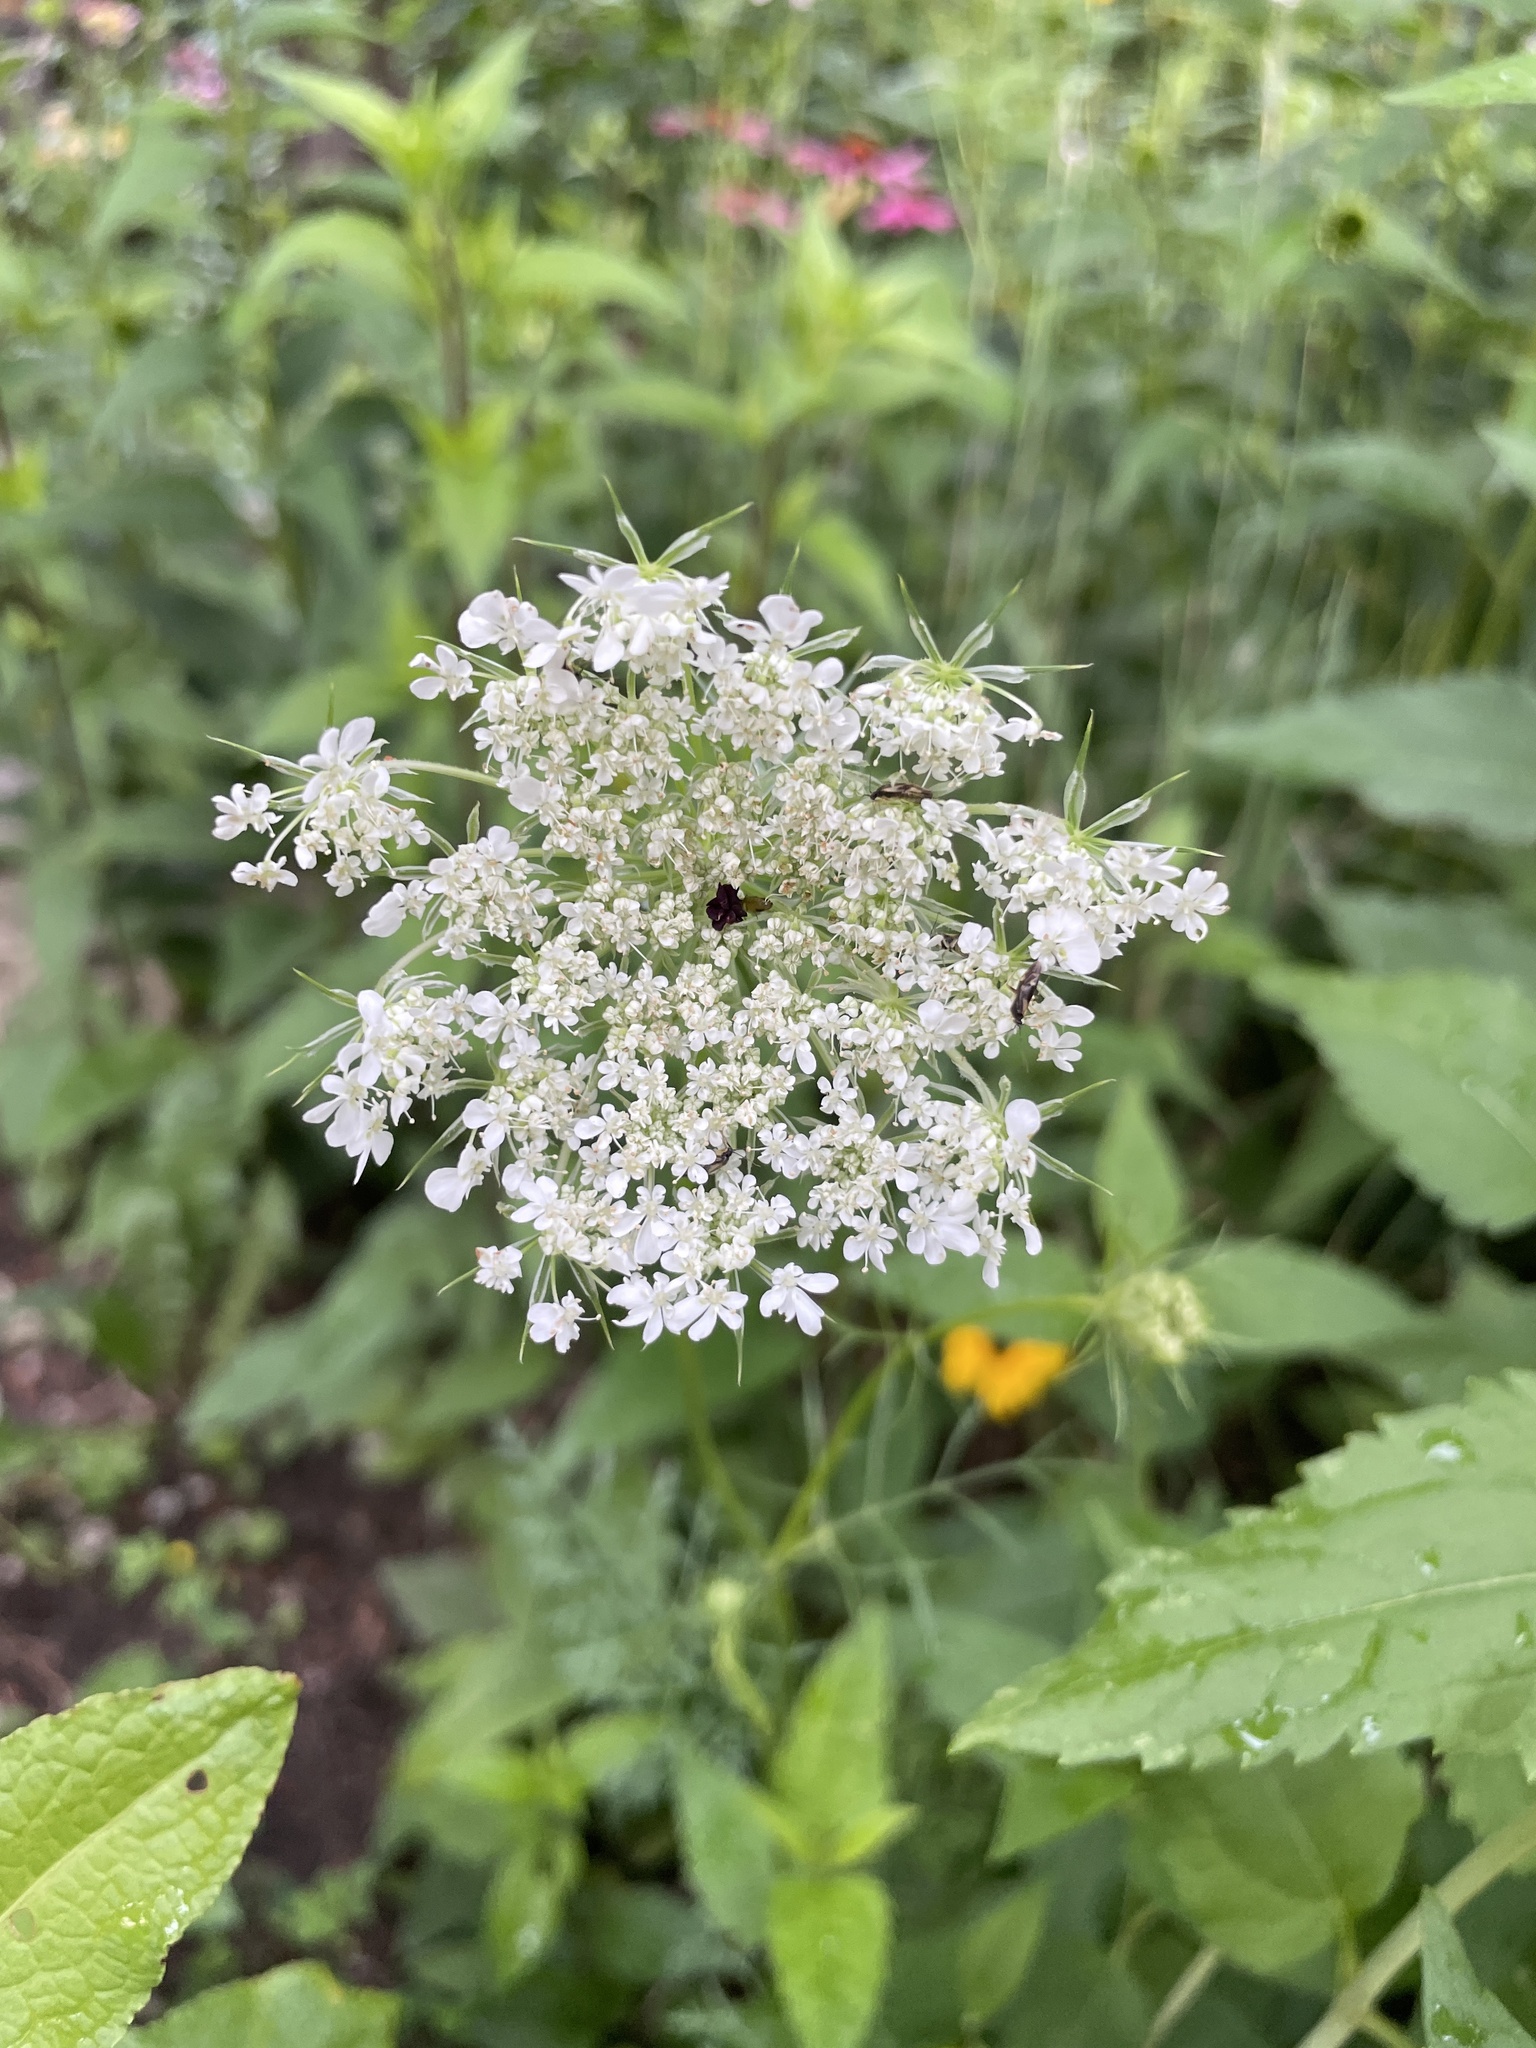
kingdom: Plantae
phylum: Tracheophyta
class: Magnoliopsida
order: Apiales
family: Apiaceae
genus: Daucus
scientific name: Daucus carota
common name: Wild carrot
